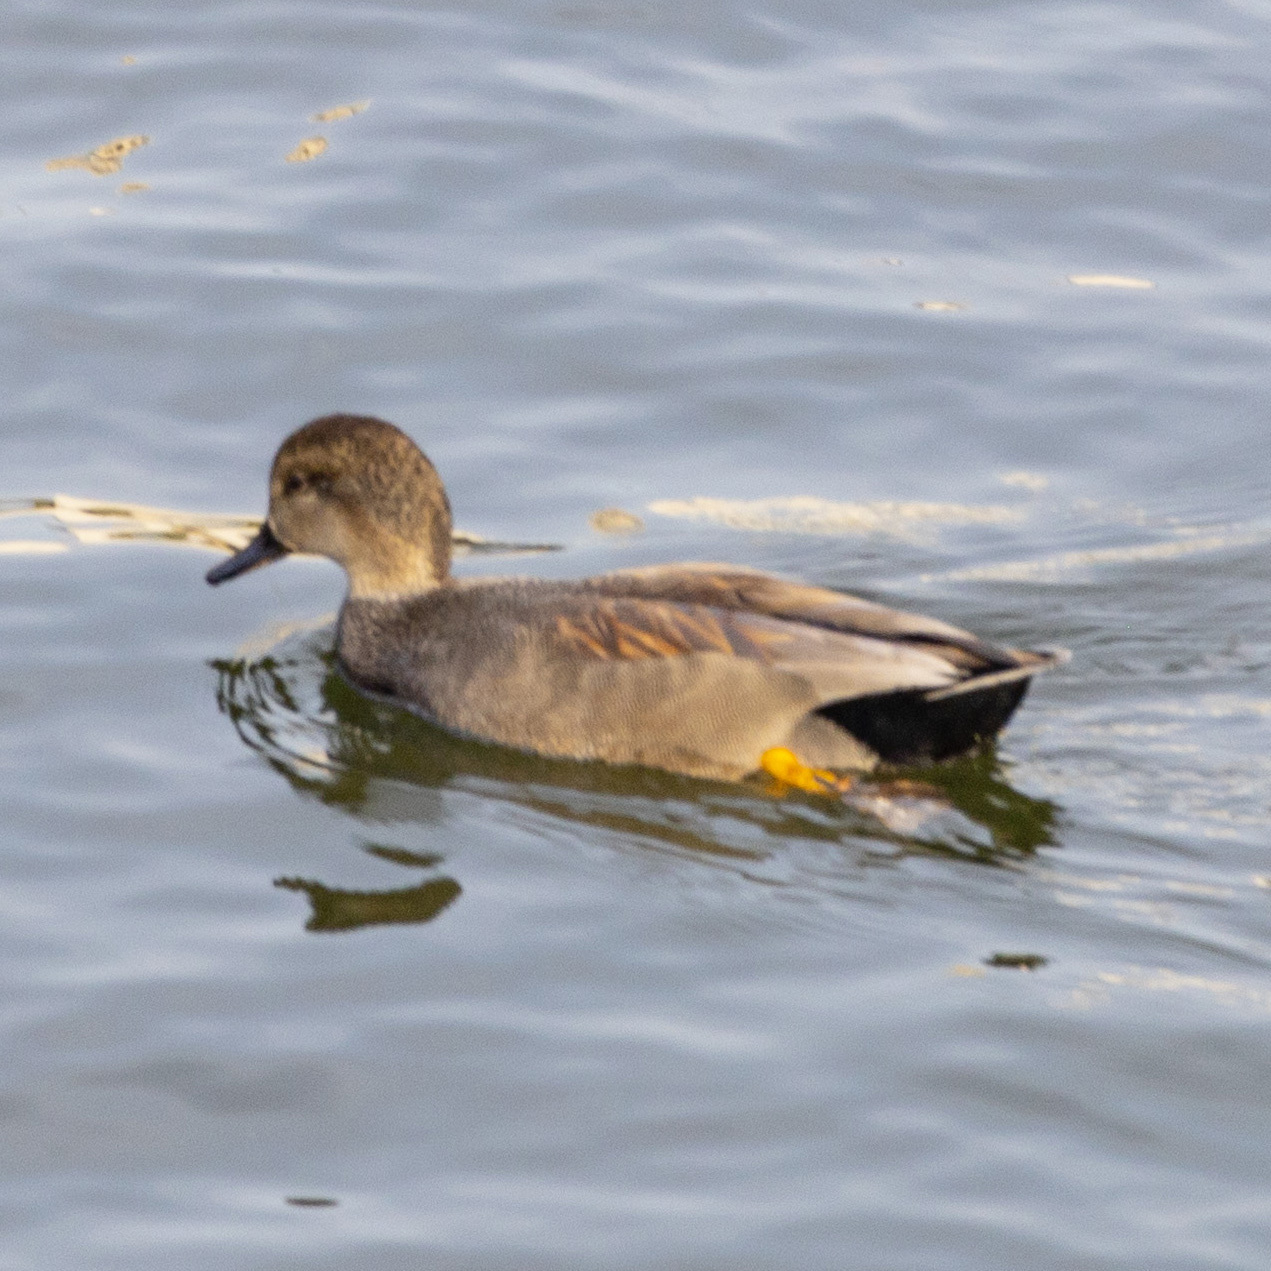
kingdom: Animalia
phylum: Chordata
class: Aves
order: Anseriformes
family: Anatidae
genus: Mareca
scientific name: Mareca strepera
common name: Gadwall
